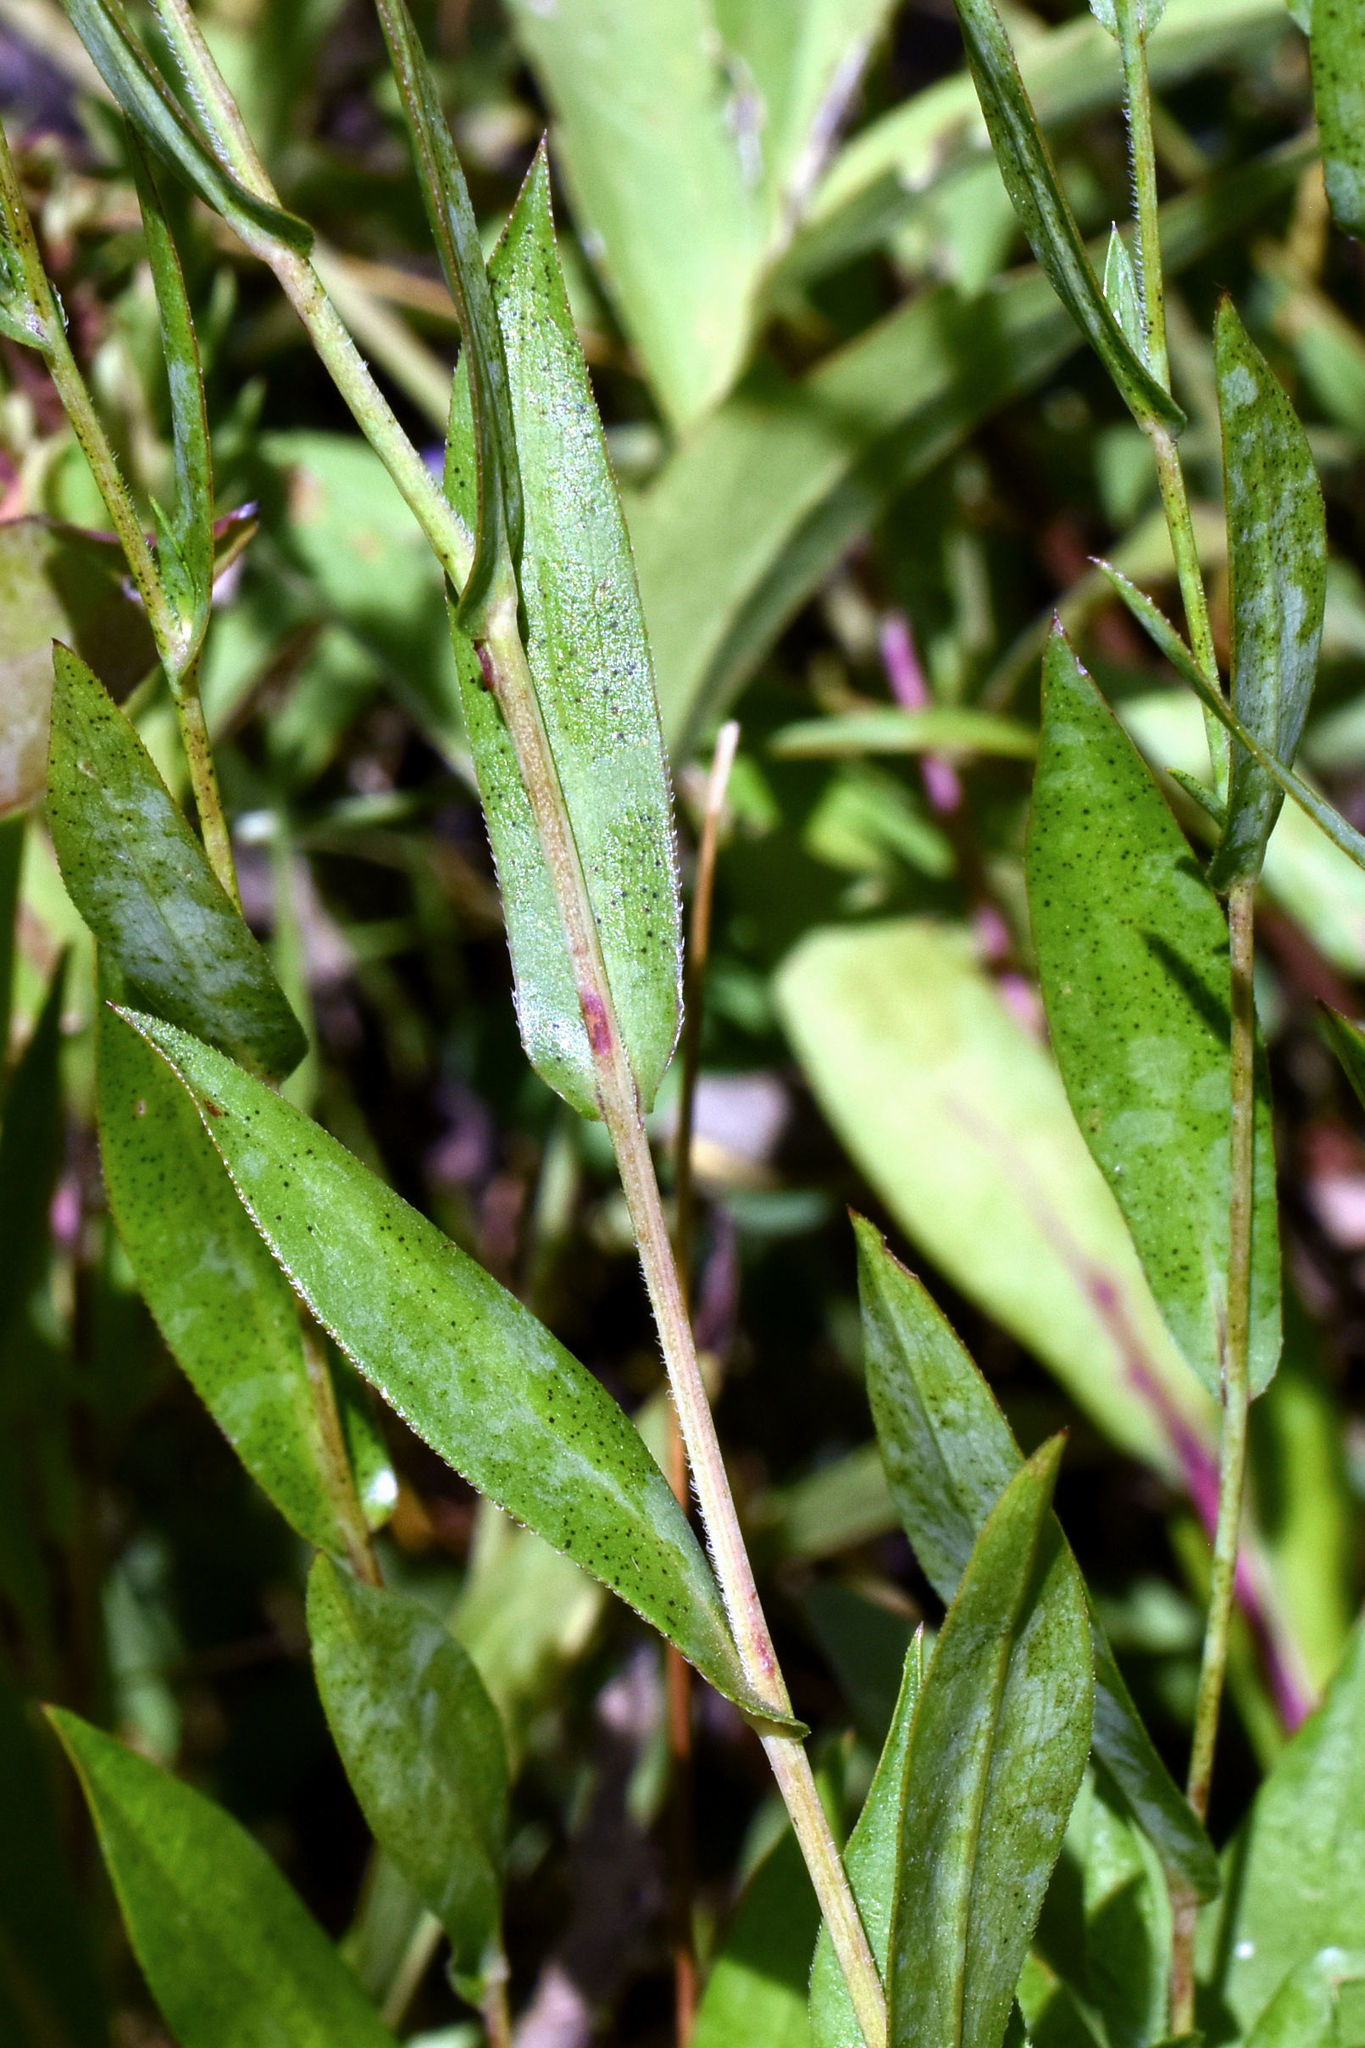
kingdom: Plantae
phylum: Tracheophyta
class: Magnoliopsida
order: Asterales
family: Asteraceae
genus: Symphyotrichum
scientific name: Symphyotrichum laeve
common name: Glaucous aster
